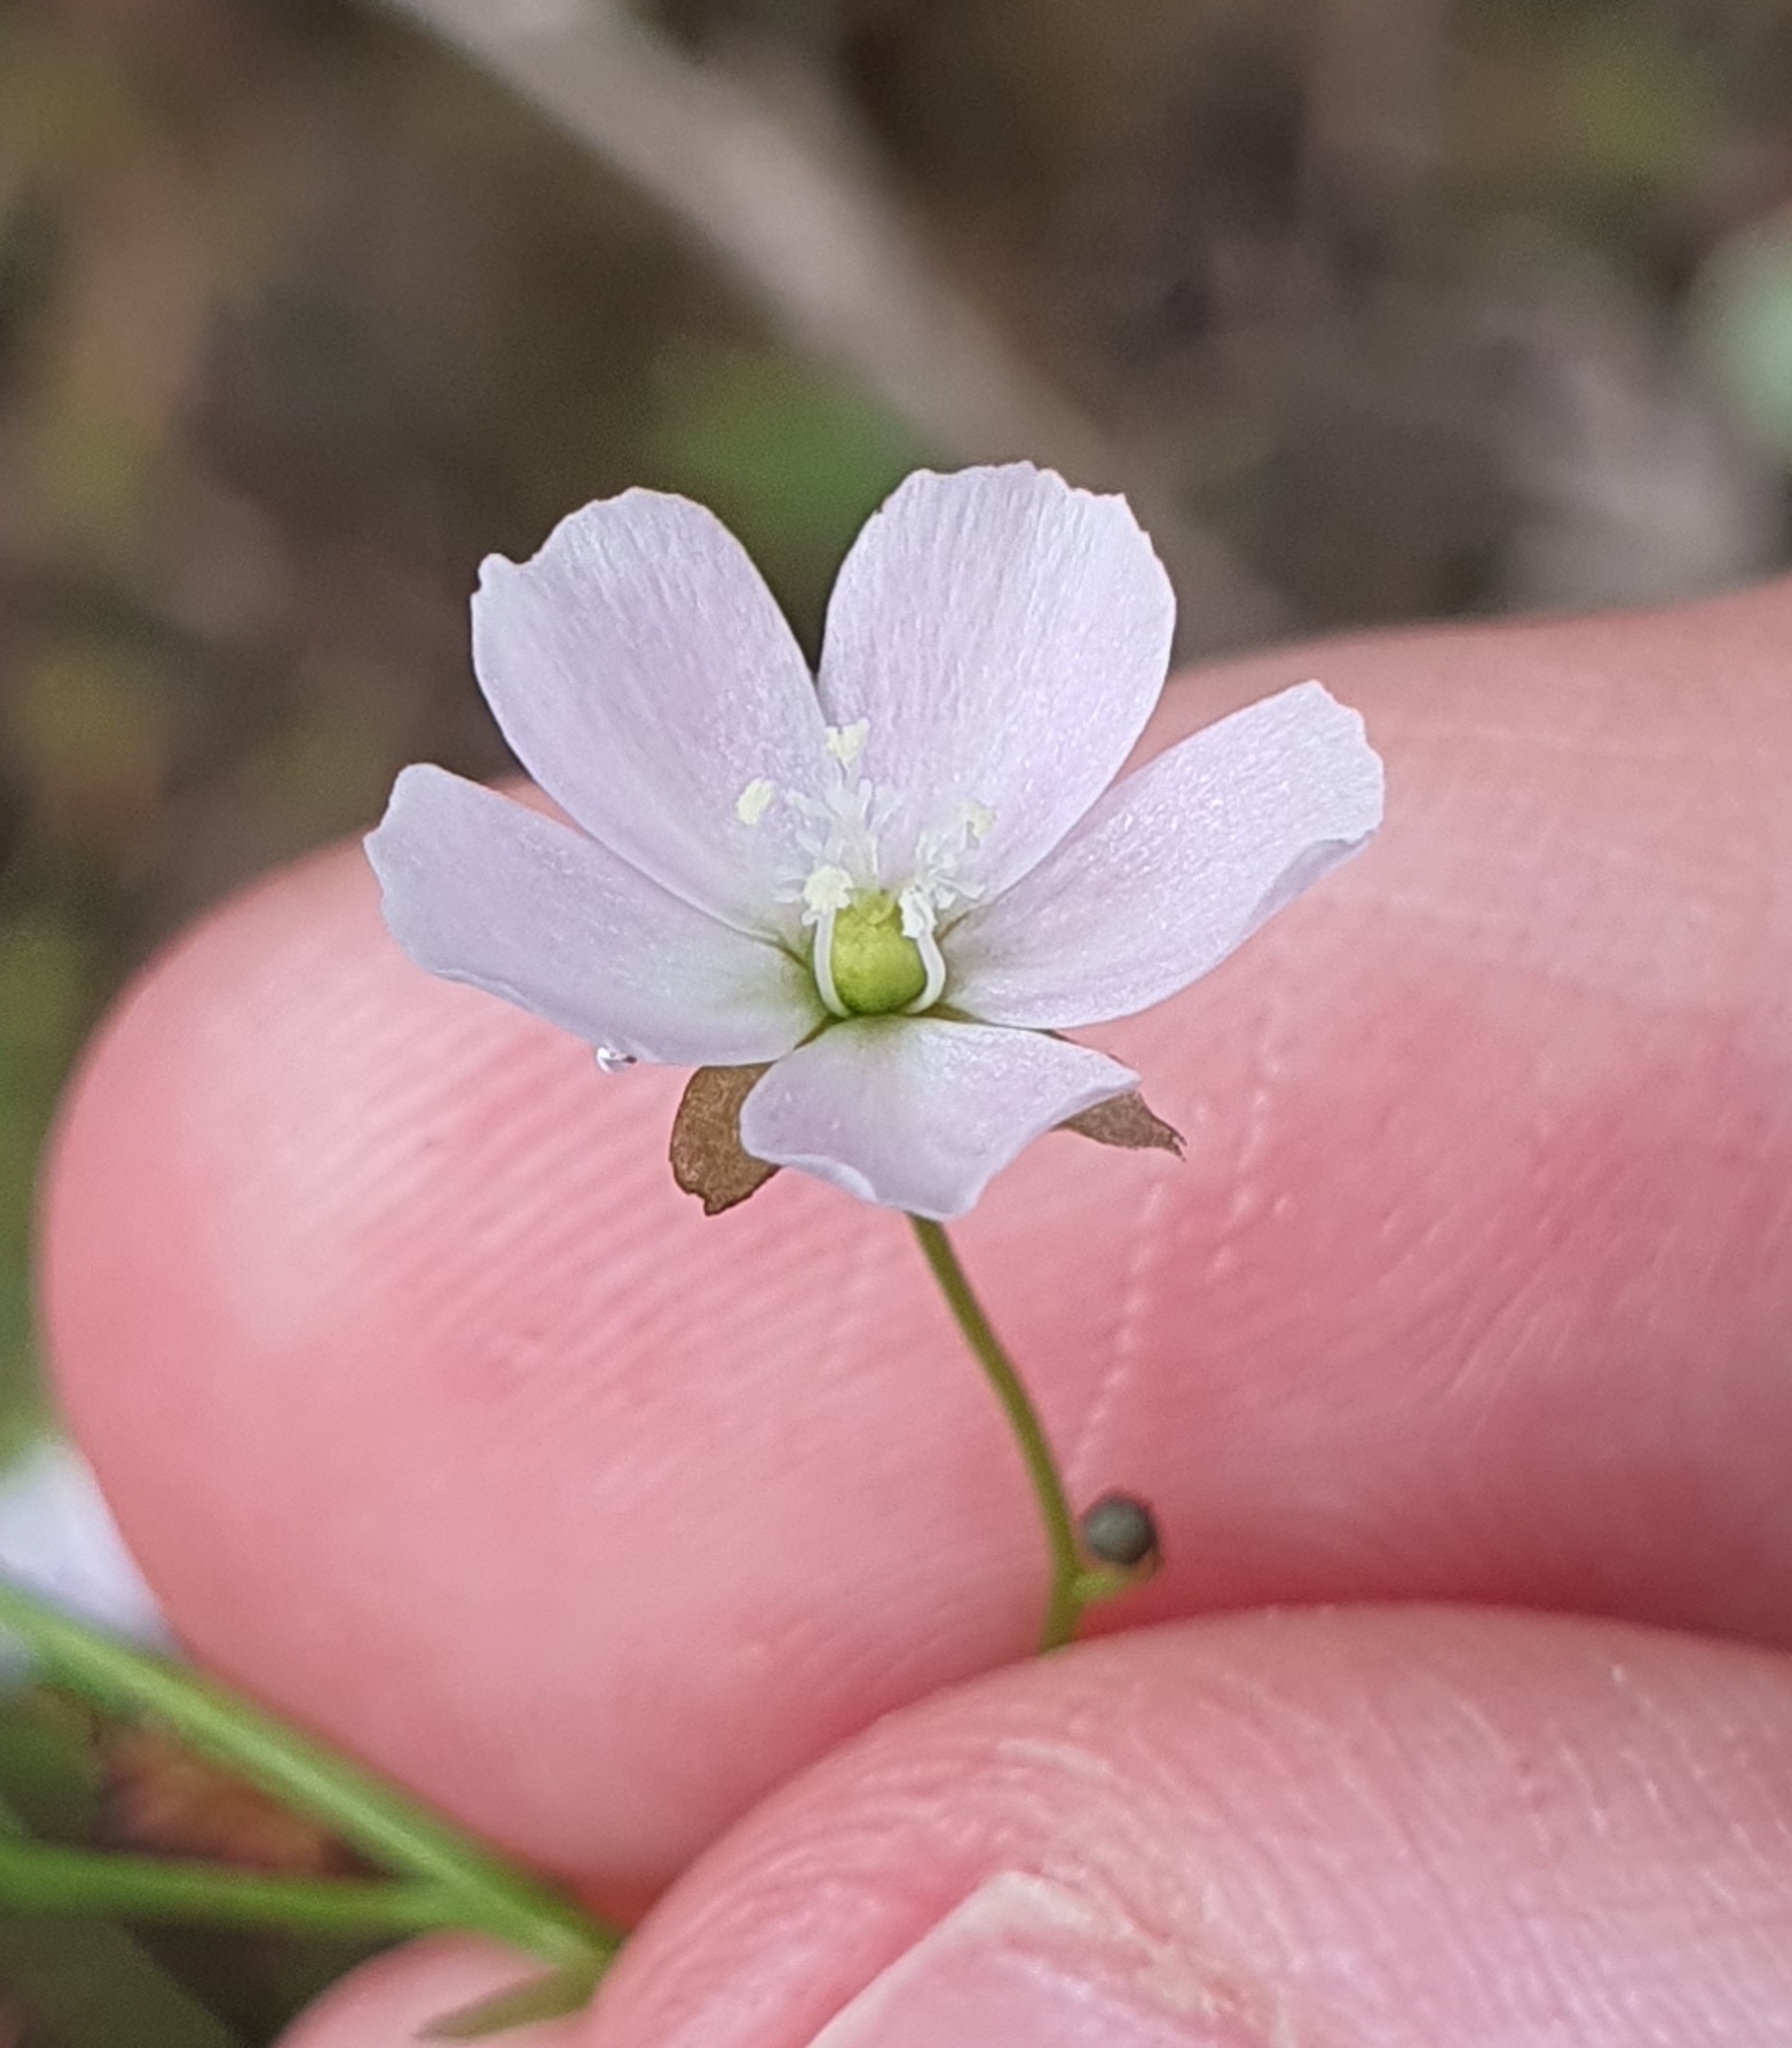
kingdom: Plantae
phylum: Tracheophyta
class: Magnoliopsida
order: Caryophyllales
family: Droseraceae
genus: Drosera
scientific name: Drosera peltata
